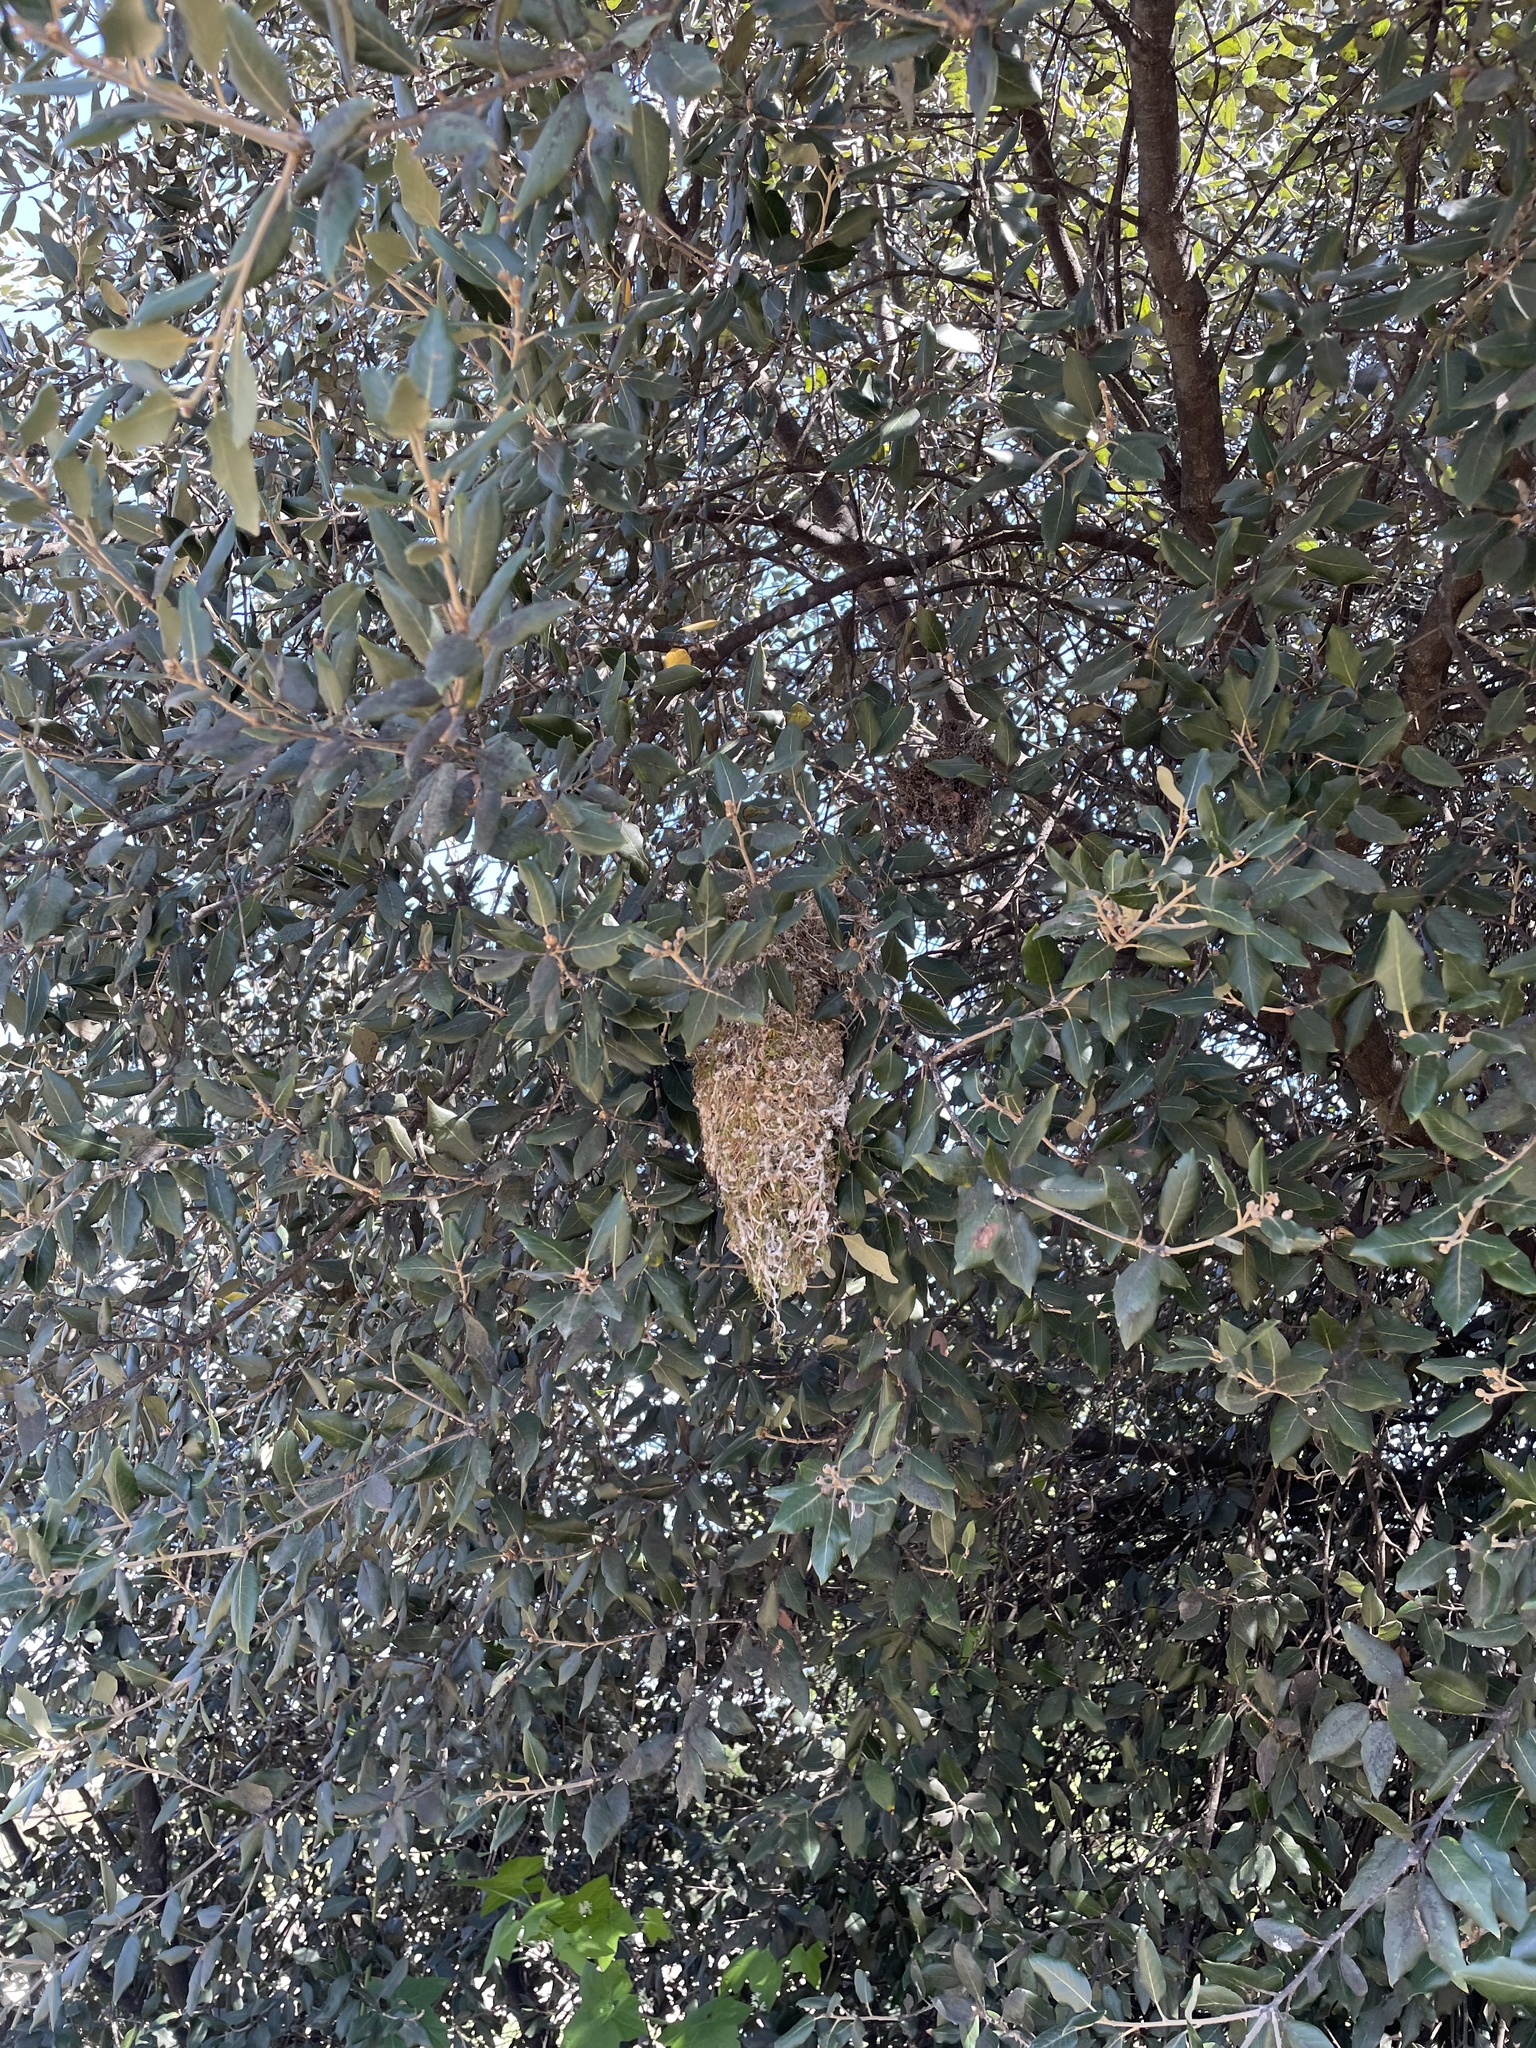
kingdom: Animalia
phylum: Chordata
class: Aves
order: Passeriformes
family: Aegithalidae
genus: Psaltriparus
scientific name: Psaltriparus minimus
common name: American bushtit
